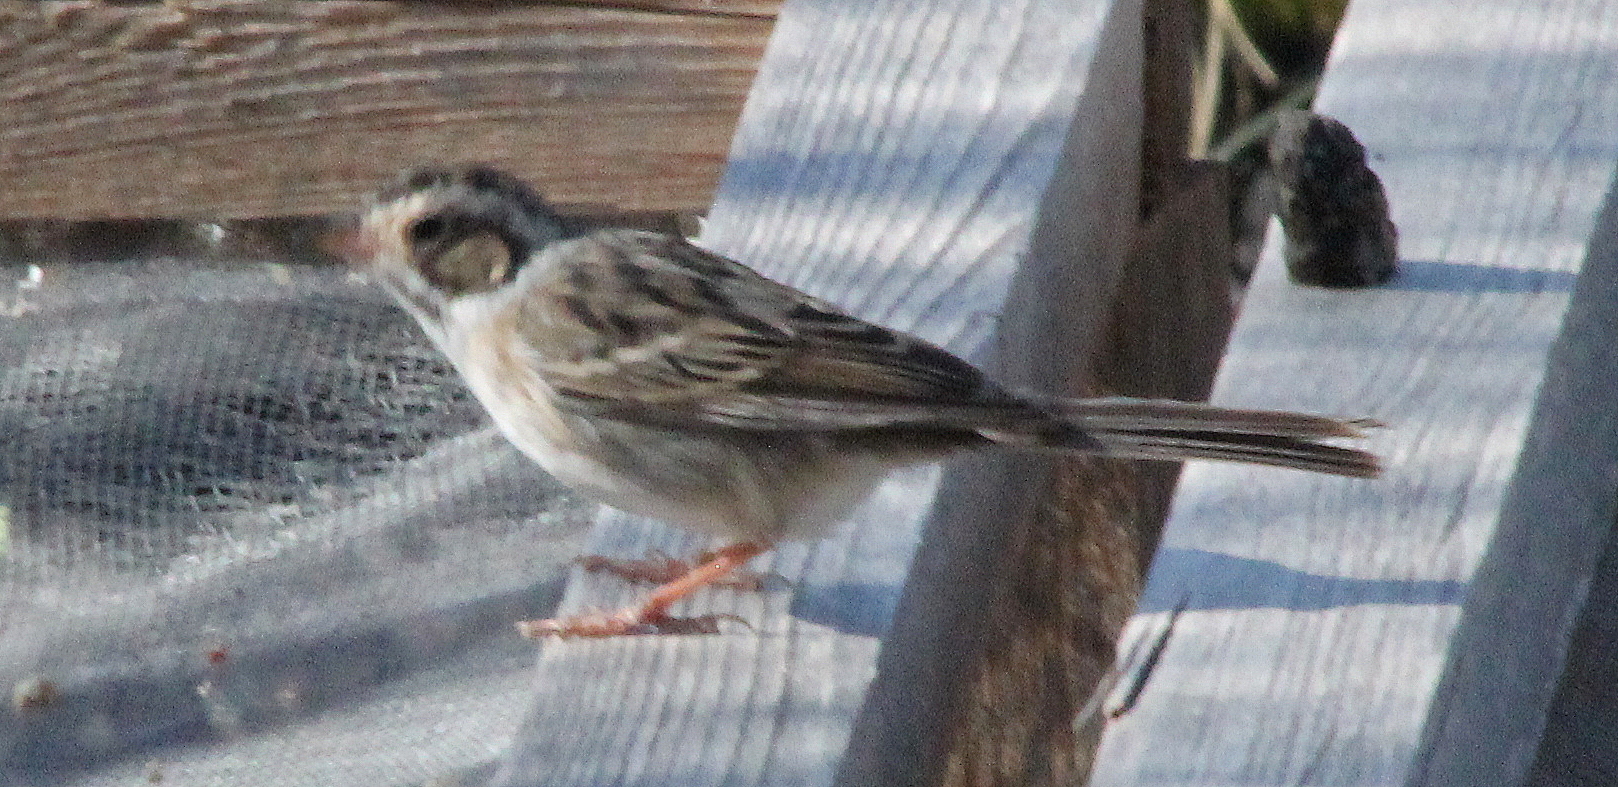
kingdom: Animalia
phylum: Chordata
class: Aves
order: Passeriformes
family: Passerellidae
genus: Spizella
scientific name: Spizella pallida
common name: Clay-colored sparrow
